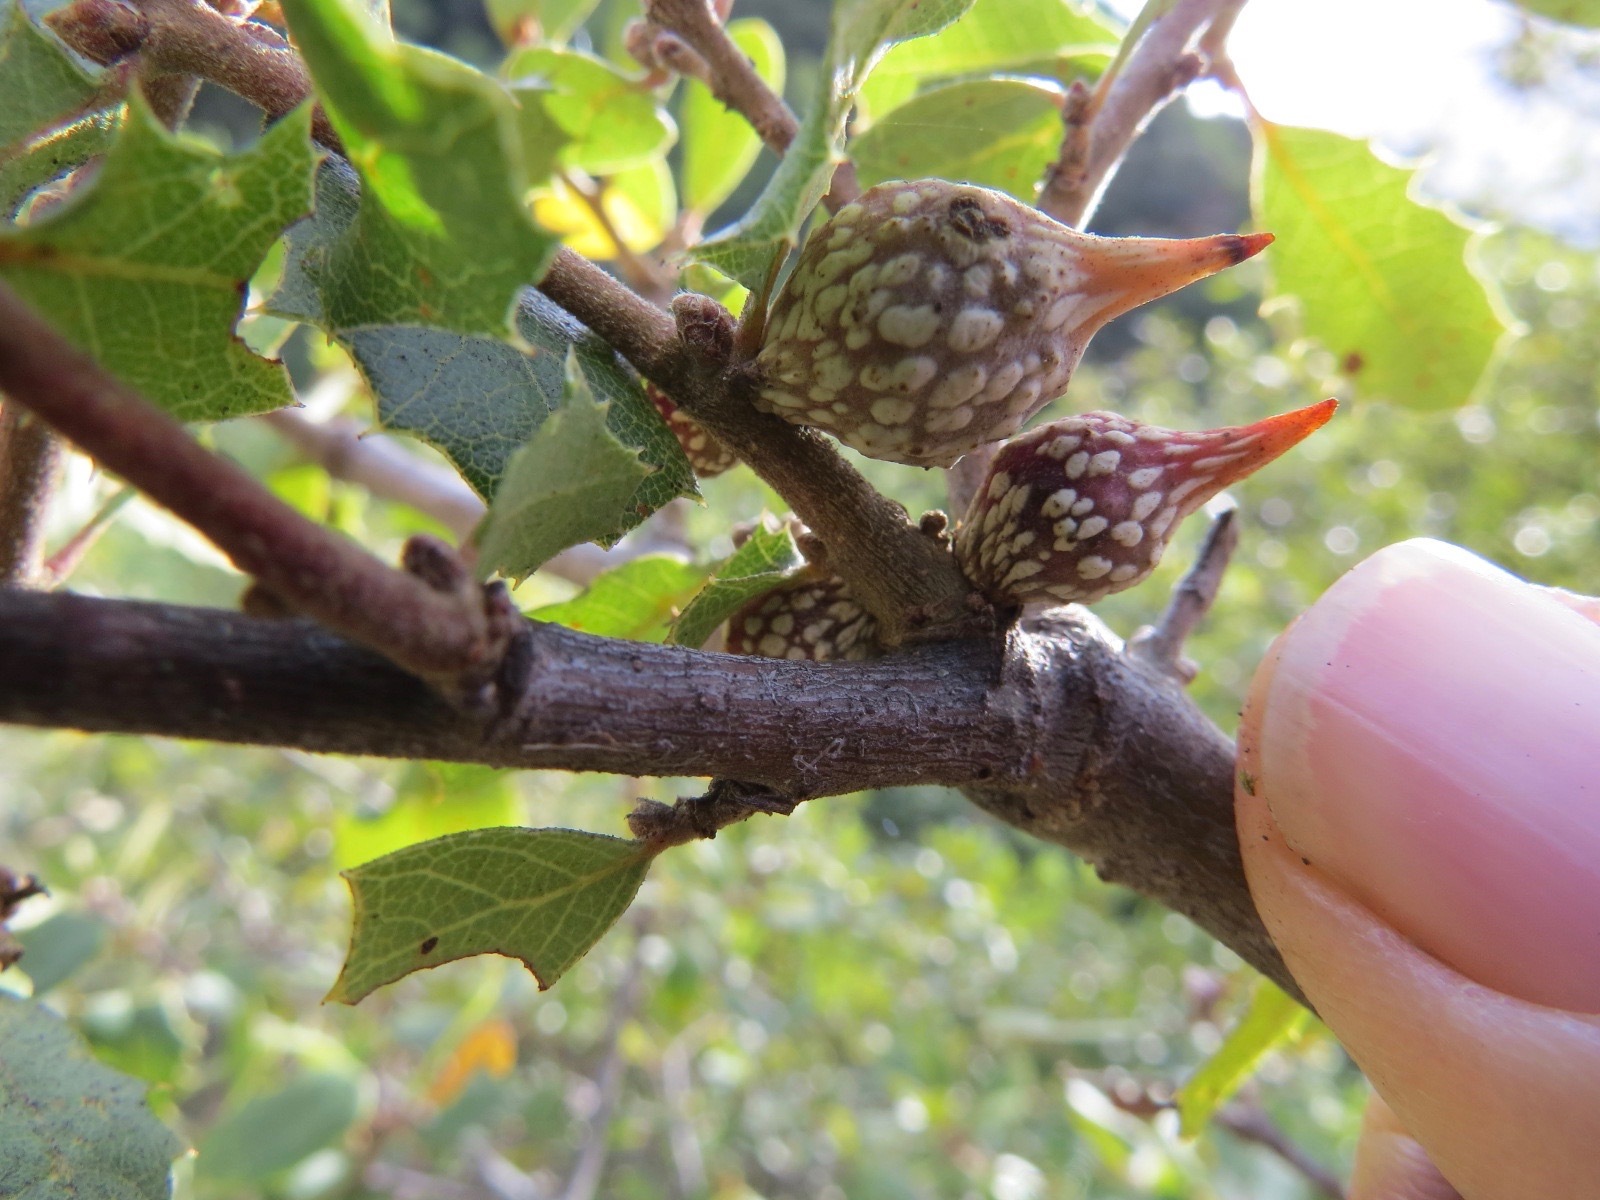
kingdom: Animalia
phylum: Arthropoda
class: Insecta
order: Hymenoptera
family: Cynipidae
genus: Burnettweldia
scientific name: Burnettweldia
